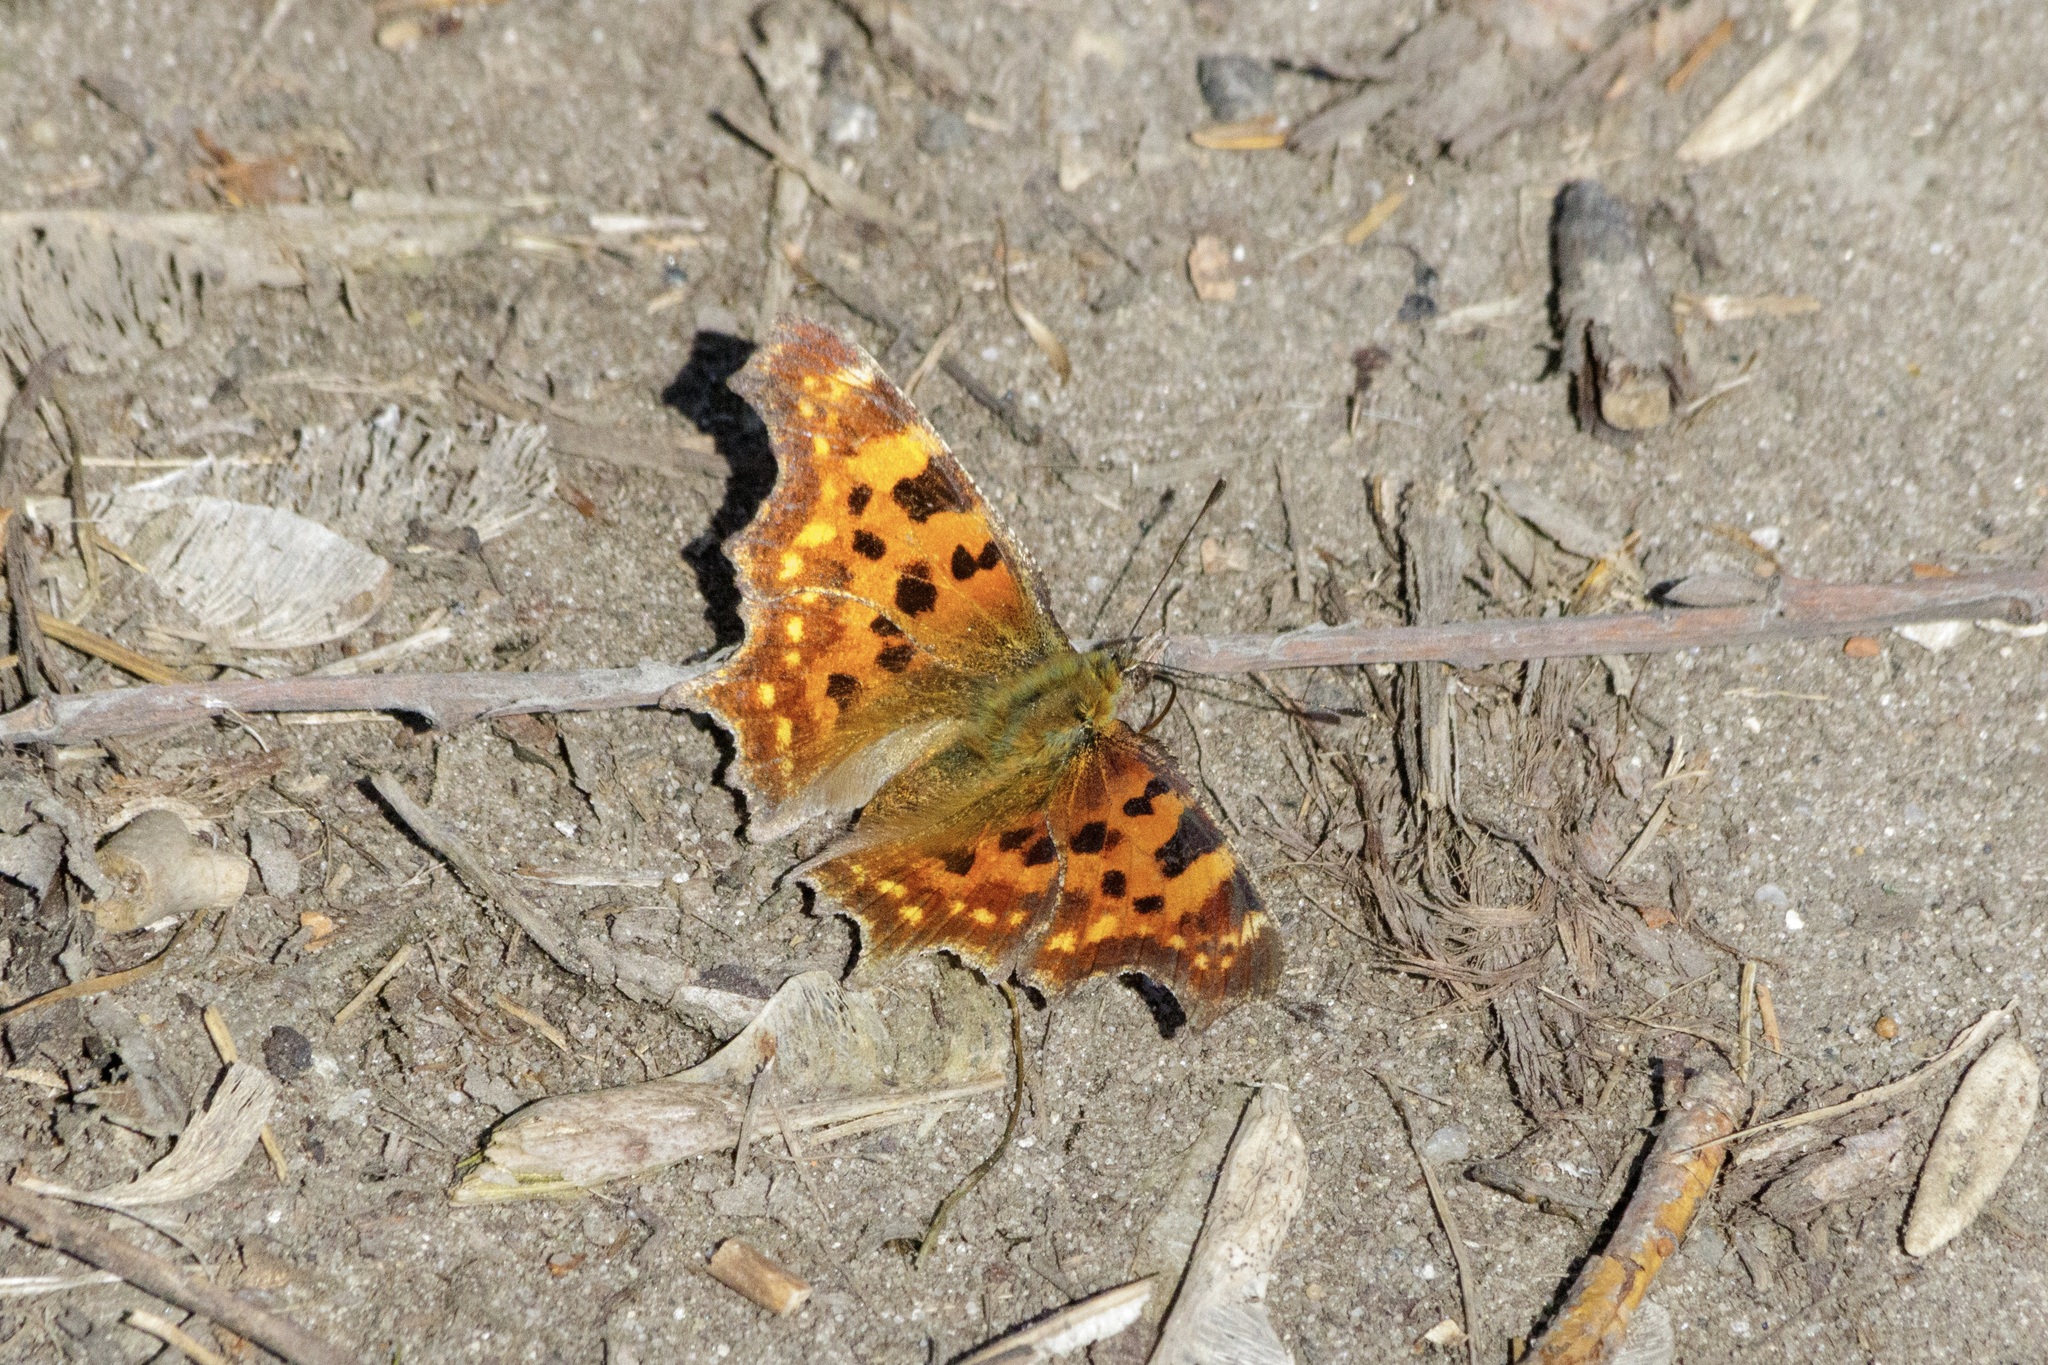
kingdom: Animalia
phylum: Arthropoda
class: Insecta
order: Lepidoptera
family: Nymphalidae
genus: Polygonia
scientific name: Polygonia c-album
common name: Comma
